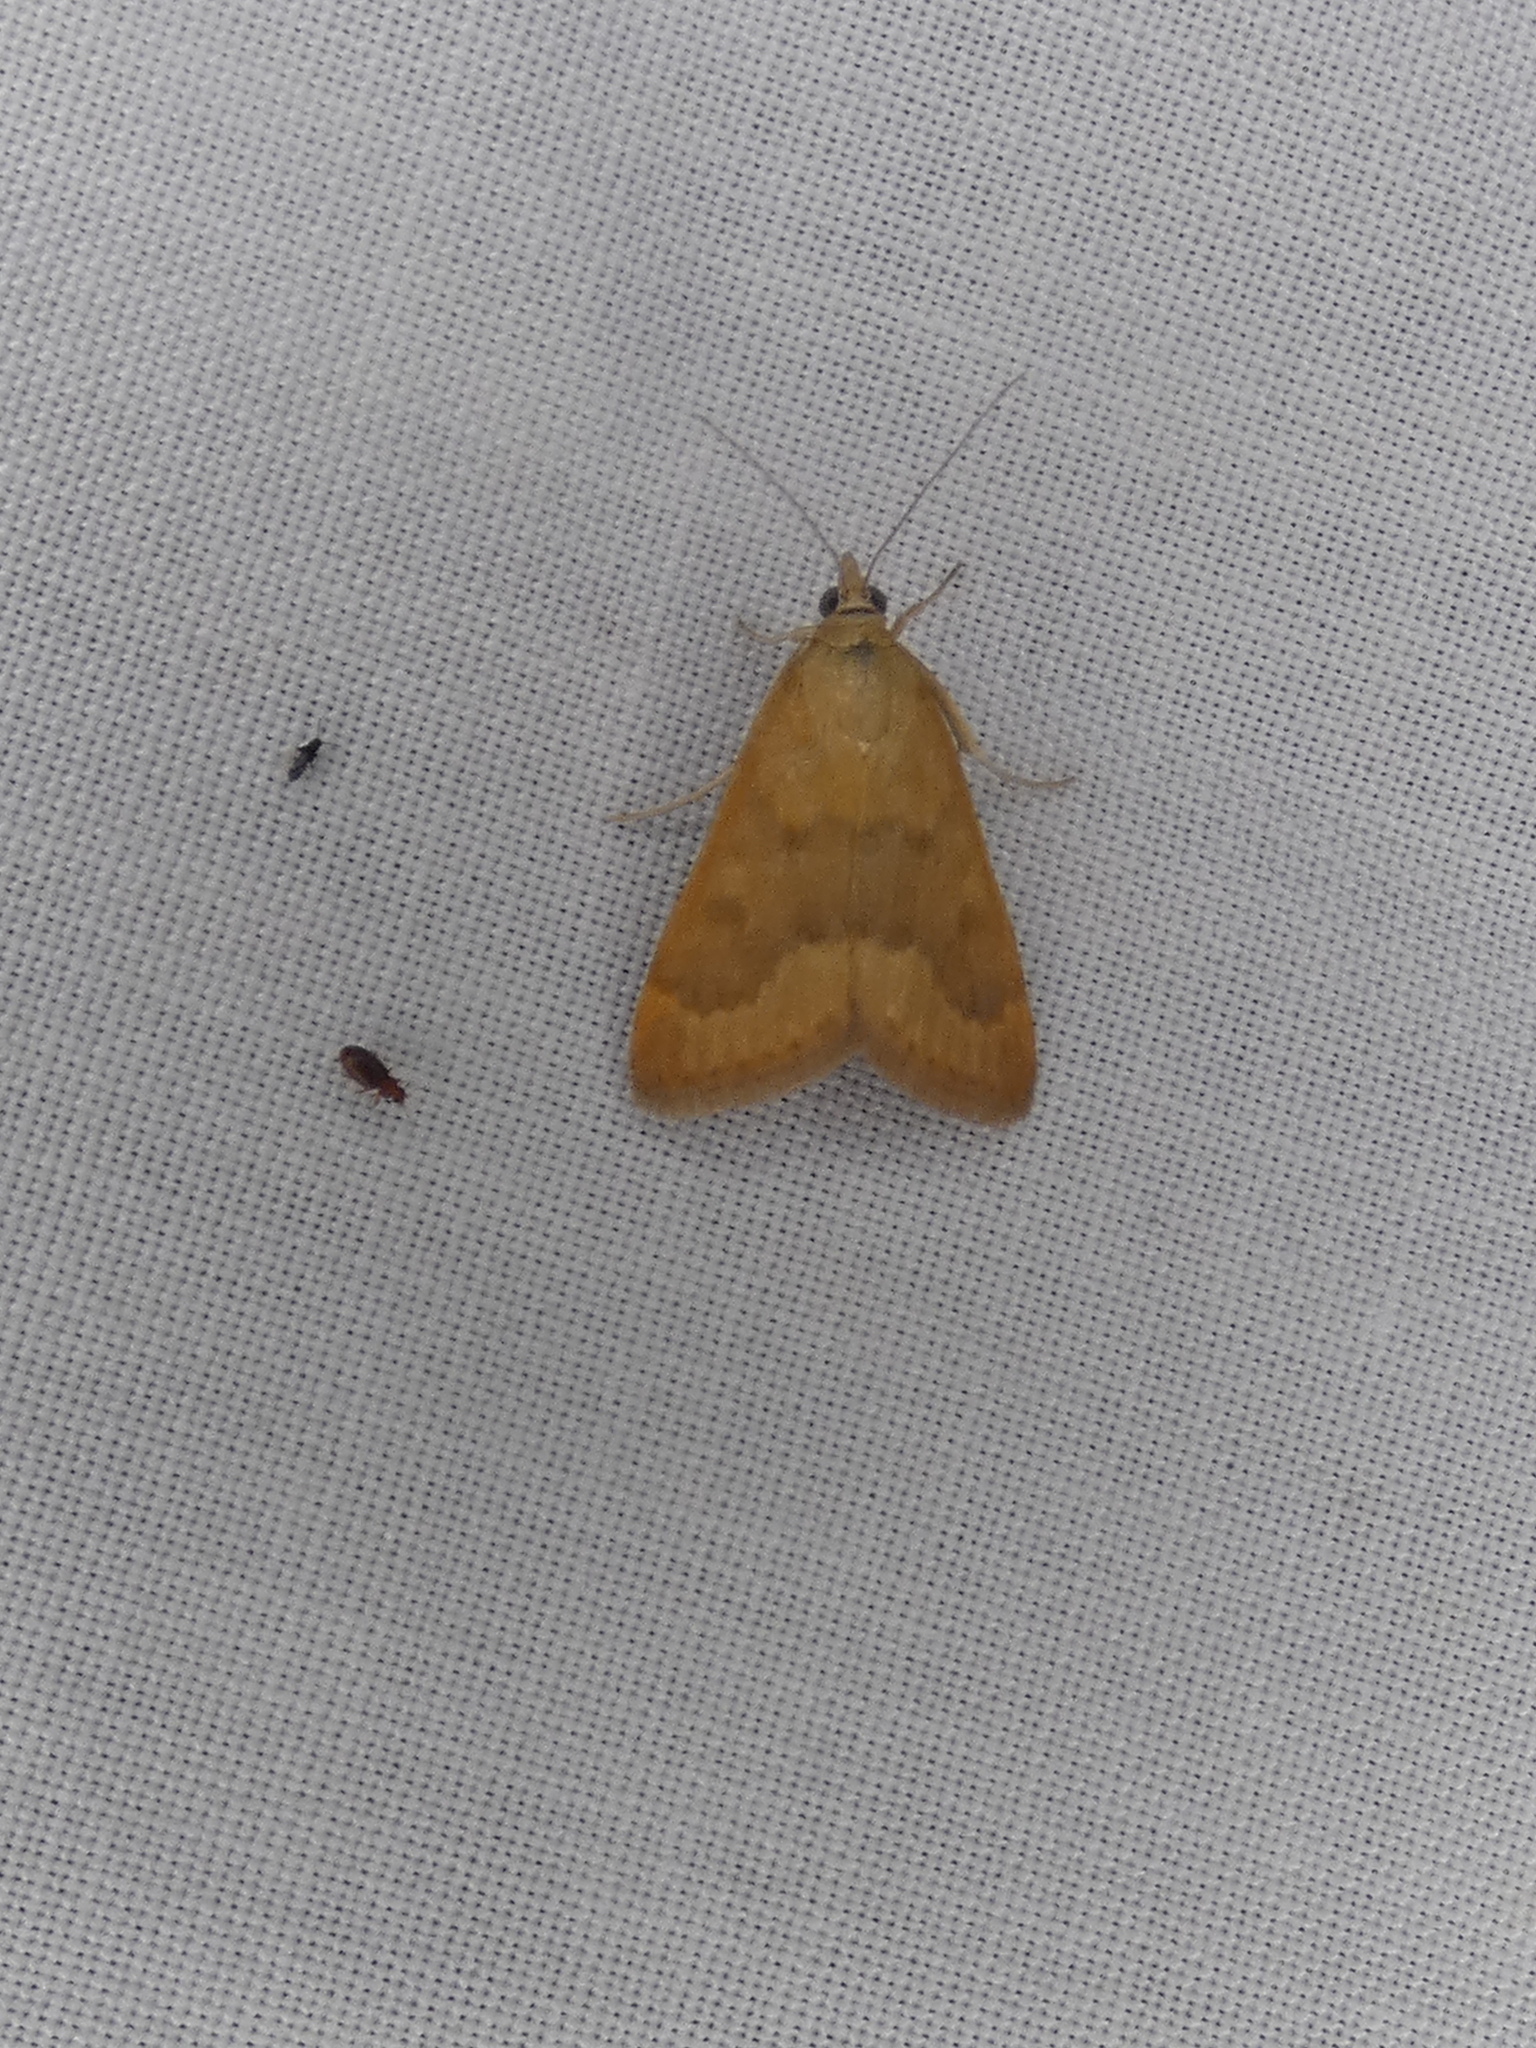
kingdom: Animalia
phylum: Arthropoda
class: Insecta
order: Lepidoptera
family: Crambidae
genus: Achyra
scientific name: Achyra rantalis
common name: Garden webworm
